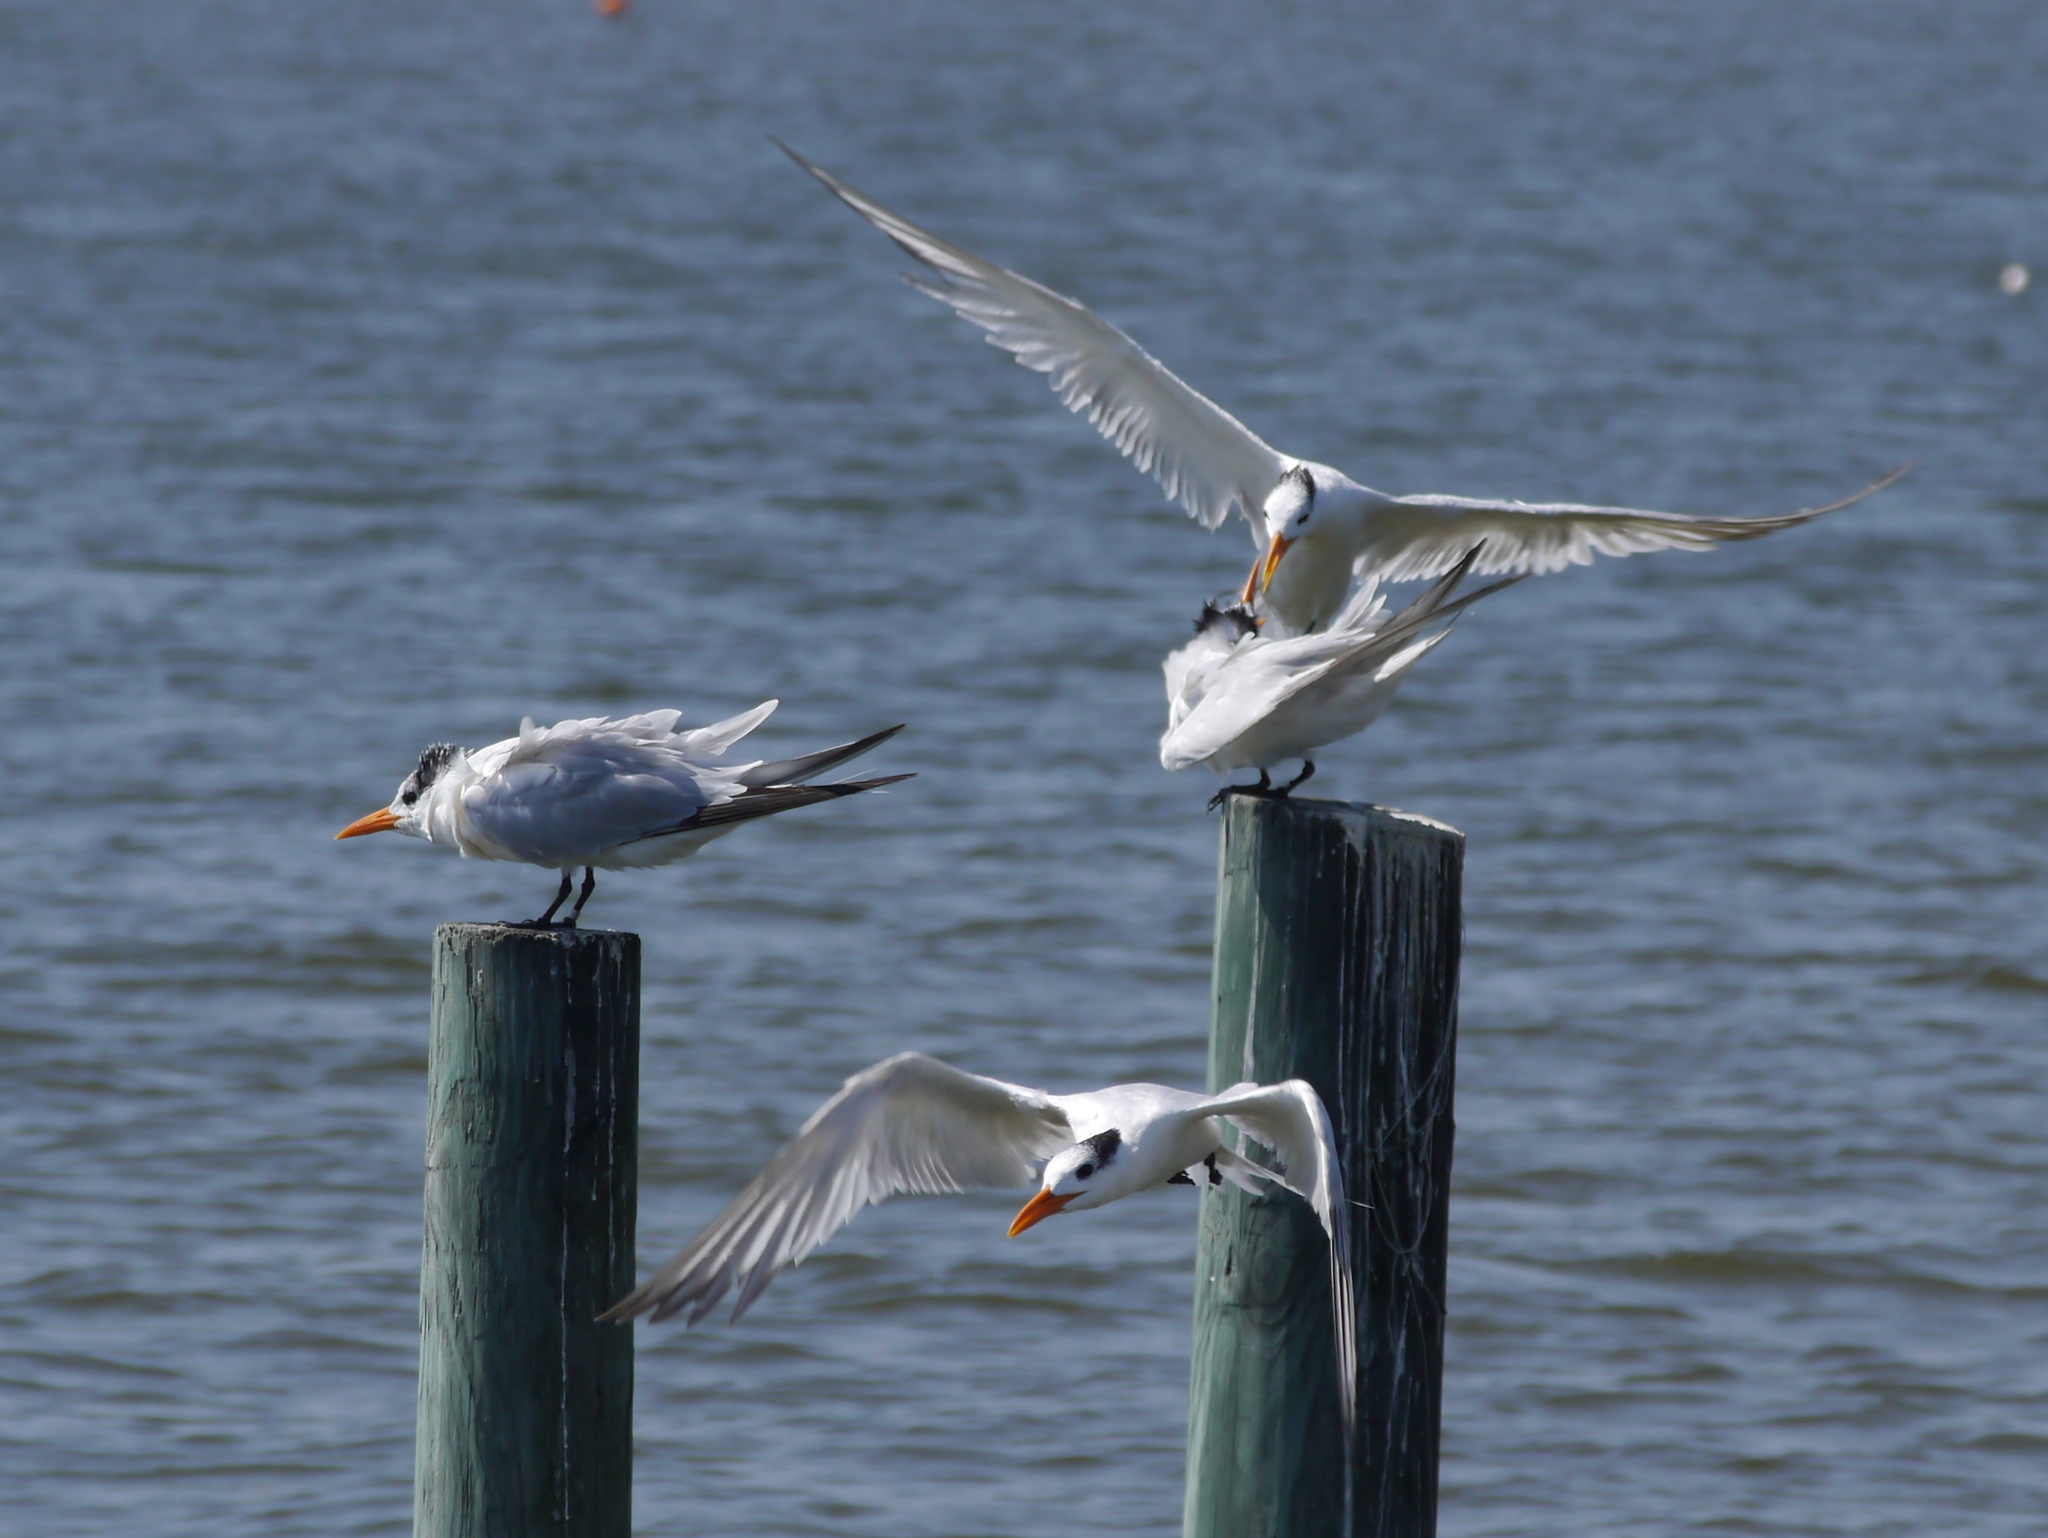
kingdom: Animalia
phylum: Chordata
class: Aves
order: Charadriiformes
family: Laridae
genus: Thalasseus
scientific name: Thalasseus maximus
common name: Royal tern
